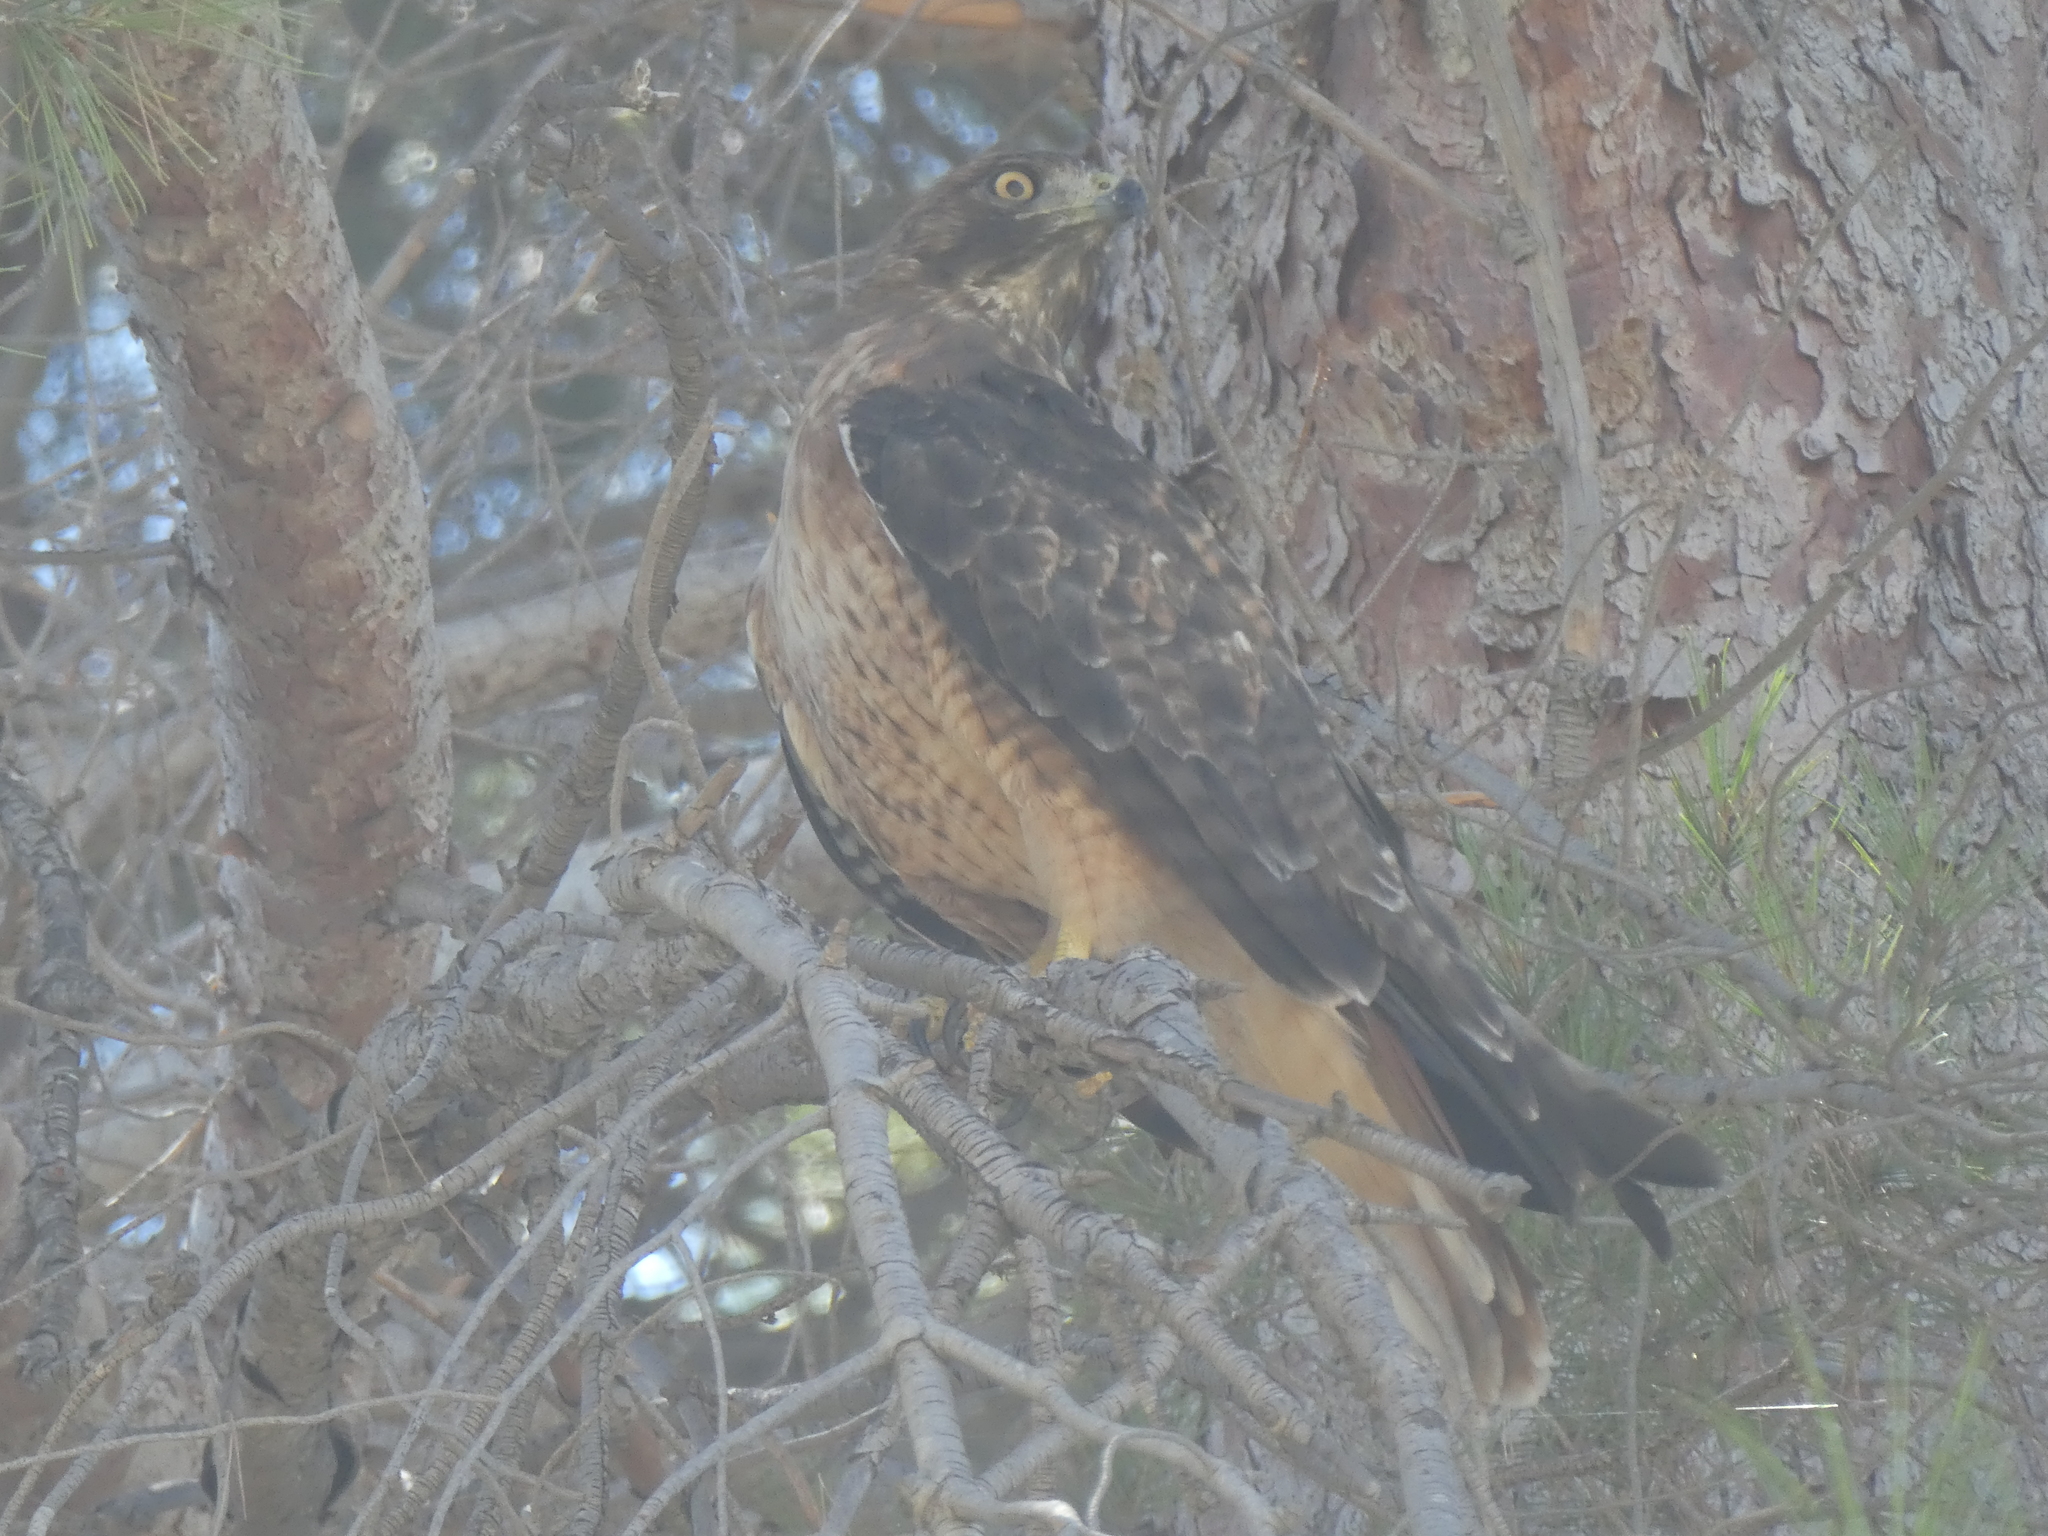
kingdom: Animalia
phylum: Chordata
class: Aves
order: Accipitriformes
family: Accipitridae
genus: Buteo
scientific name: Buteo jamaicensis
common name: Red-tailed hawk
